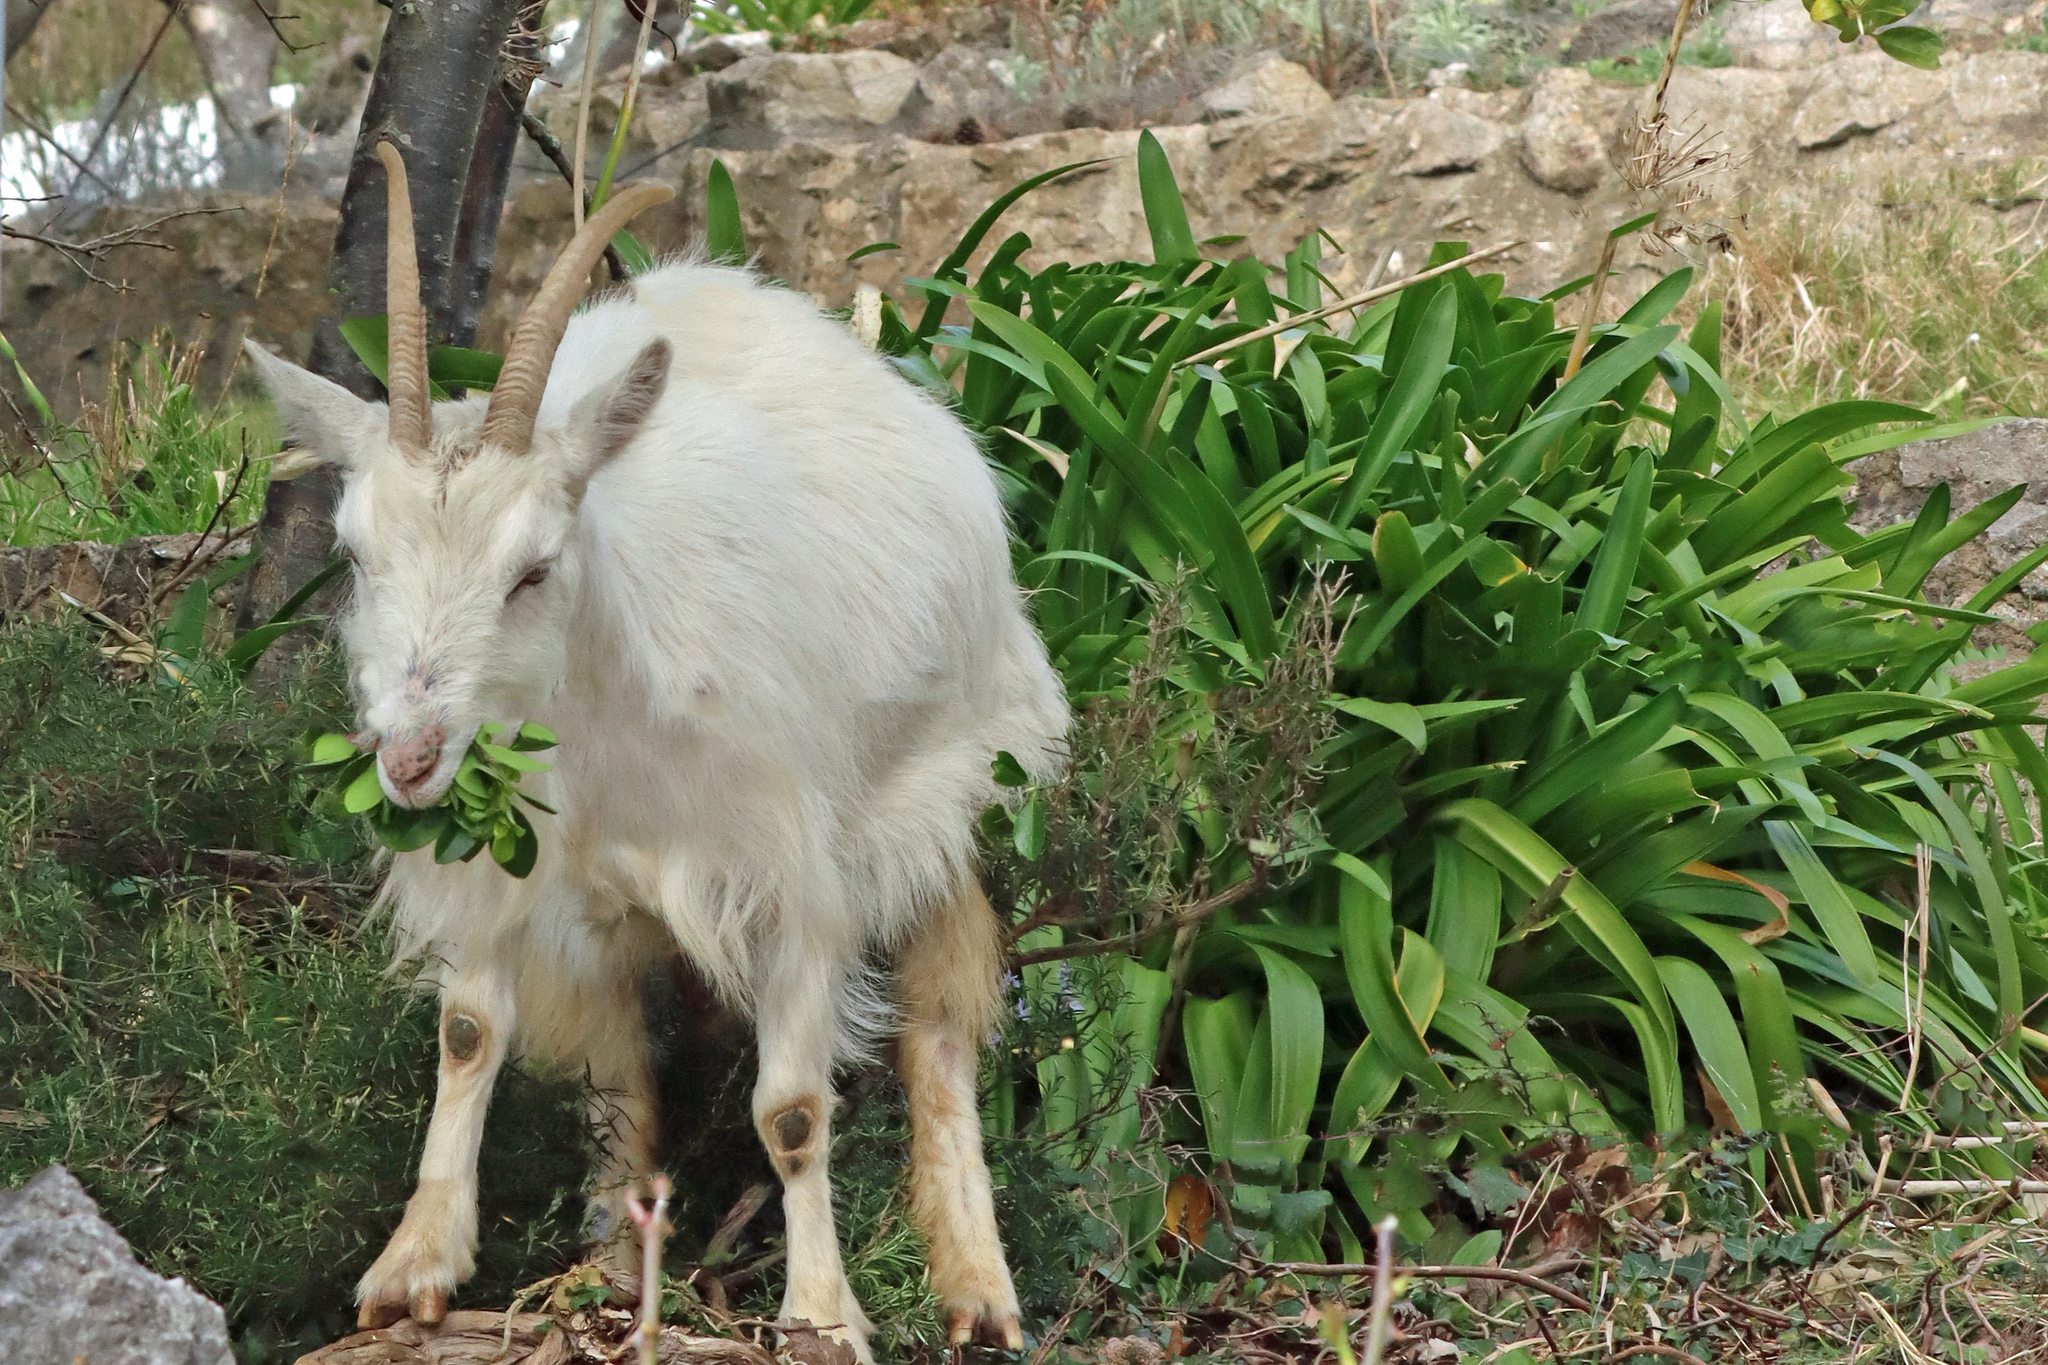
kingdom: Animalia
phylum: Chordata
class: Mammalia
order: Artiodactyla
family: Bovidae
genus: Capra
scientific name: Capra hircus
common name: Domestic goat
